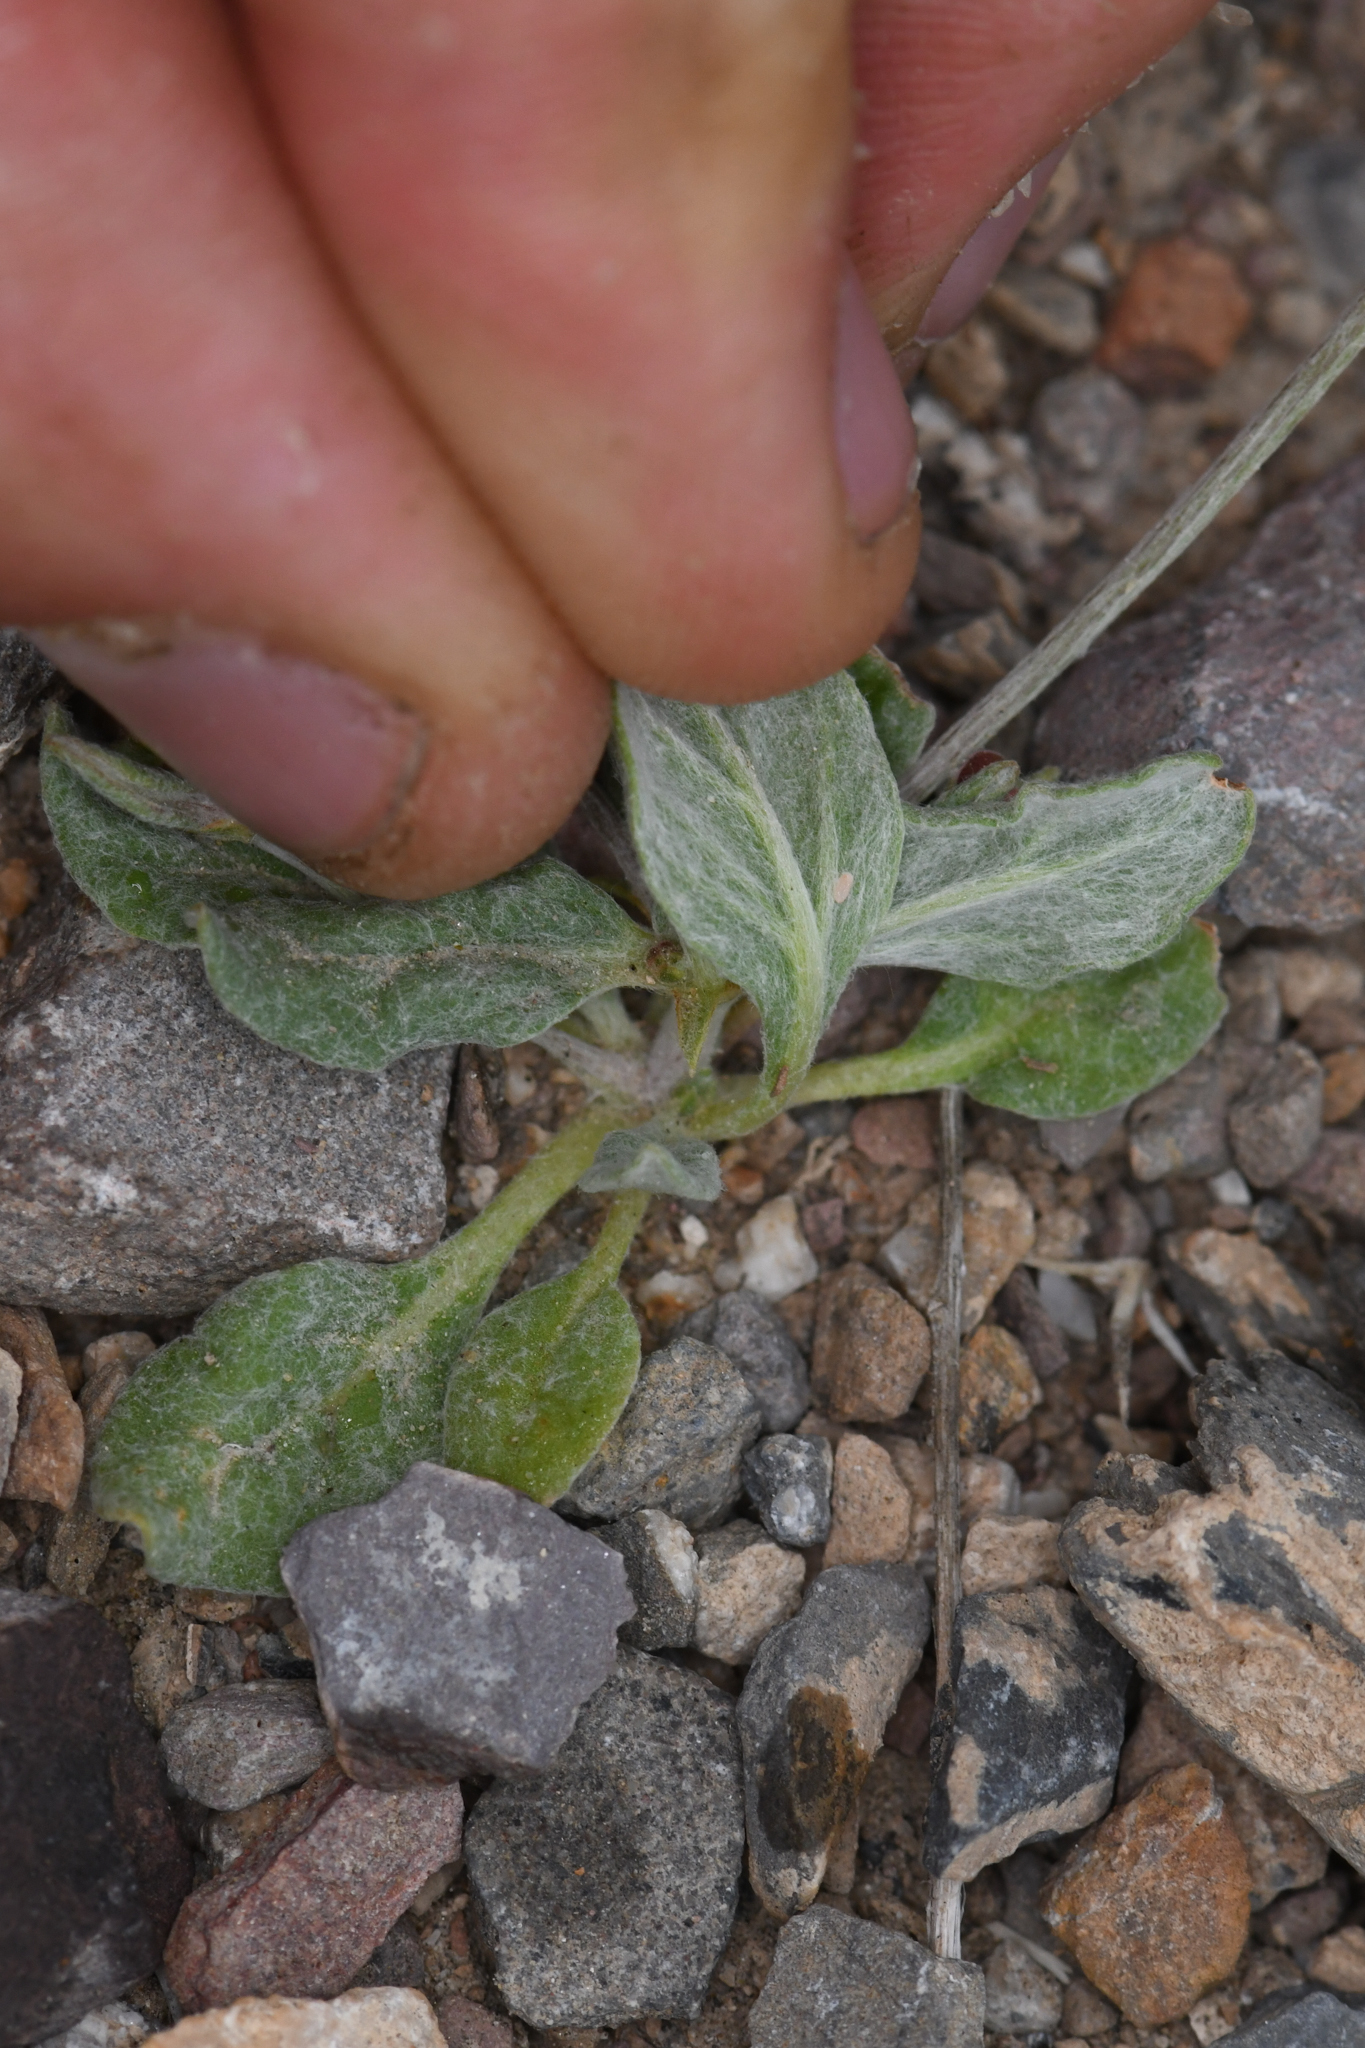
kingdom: Plantae
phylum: Tracheophyta
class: Magnoliopsida
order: Caryophyllales
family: Polygonaceae
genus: Eriogonum
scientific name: Eriogonum maculatum
